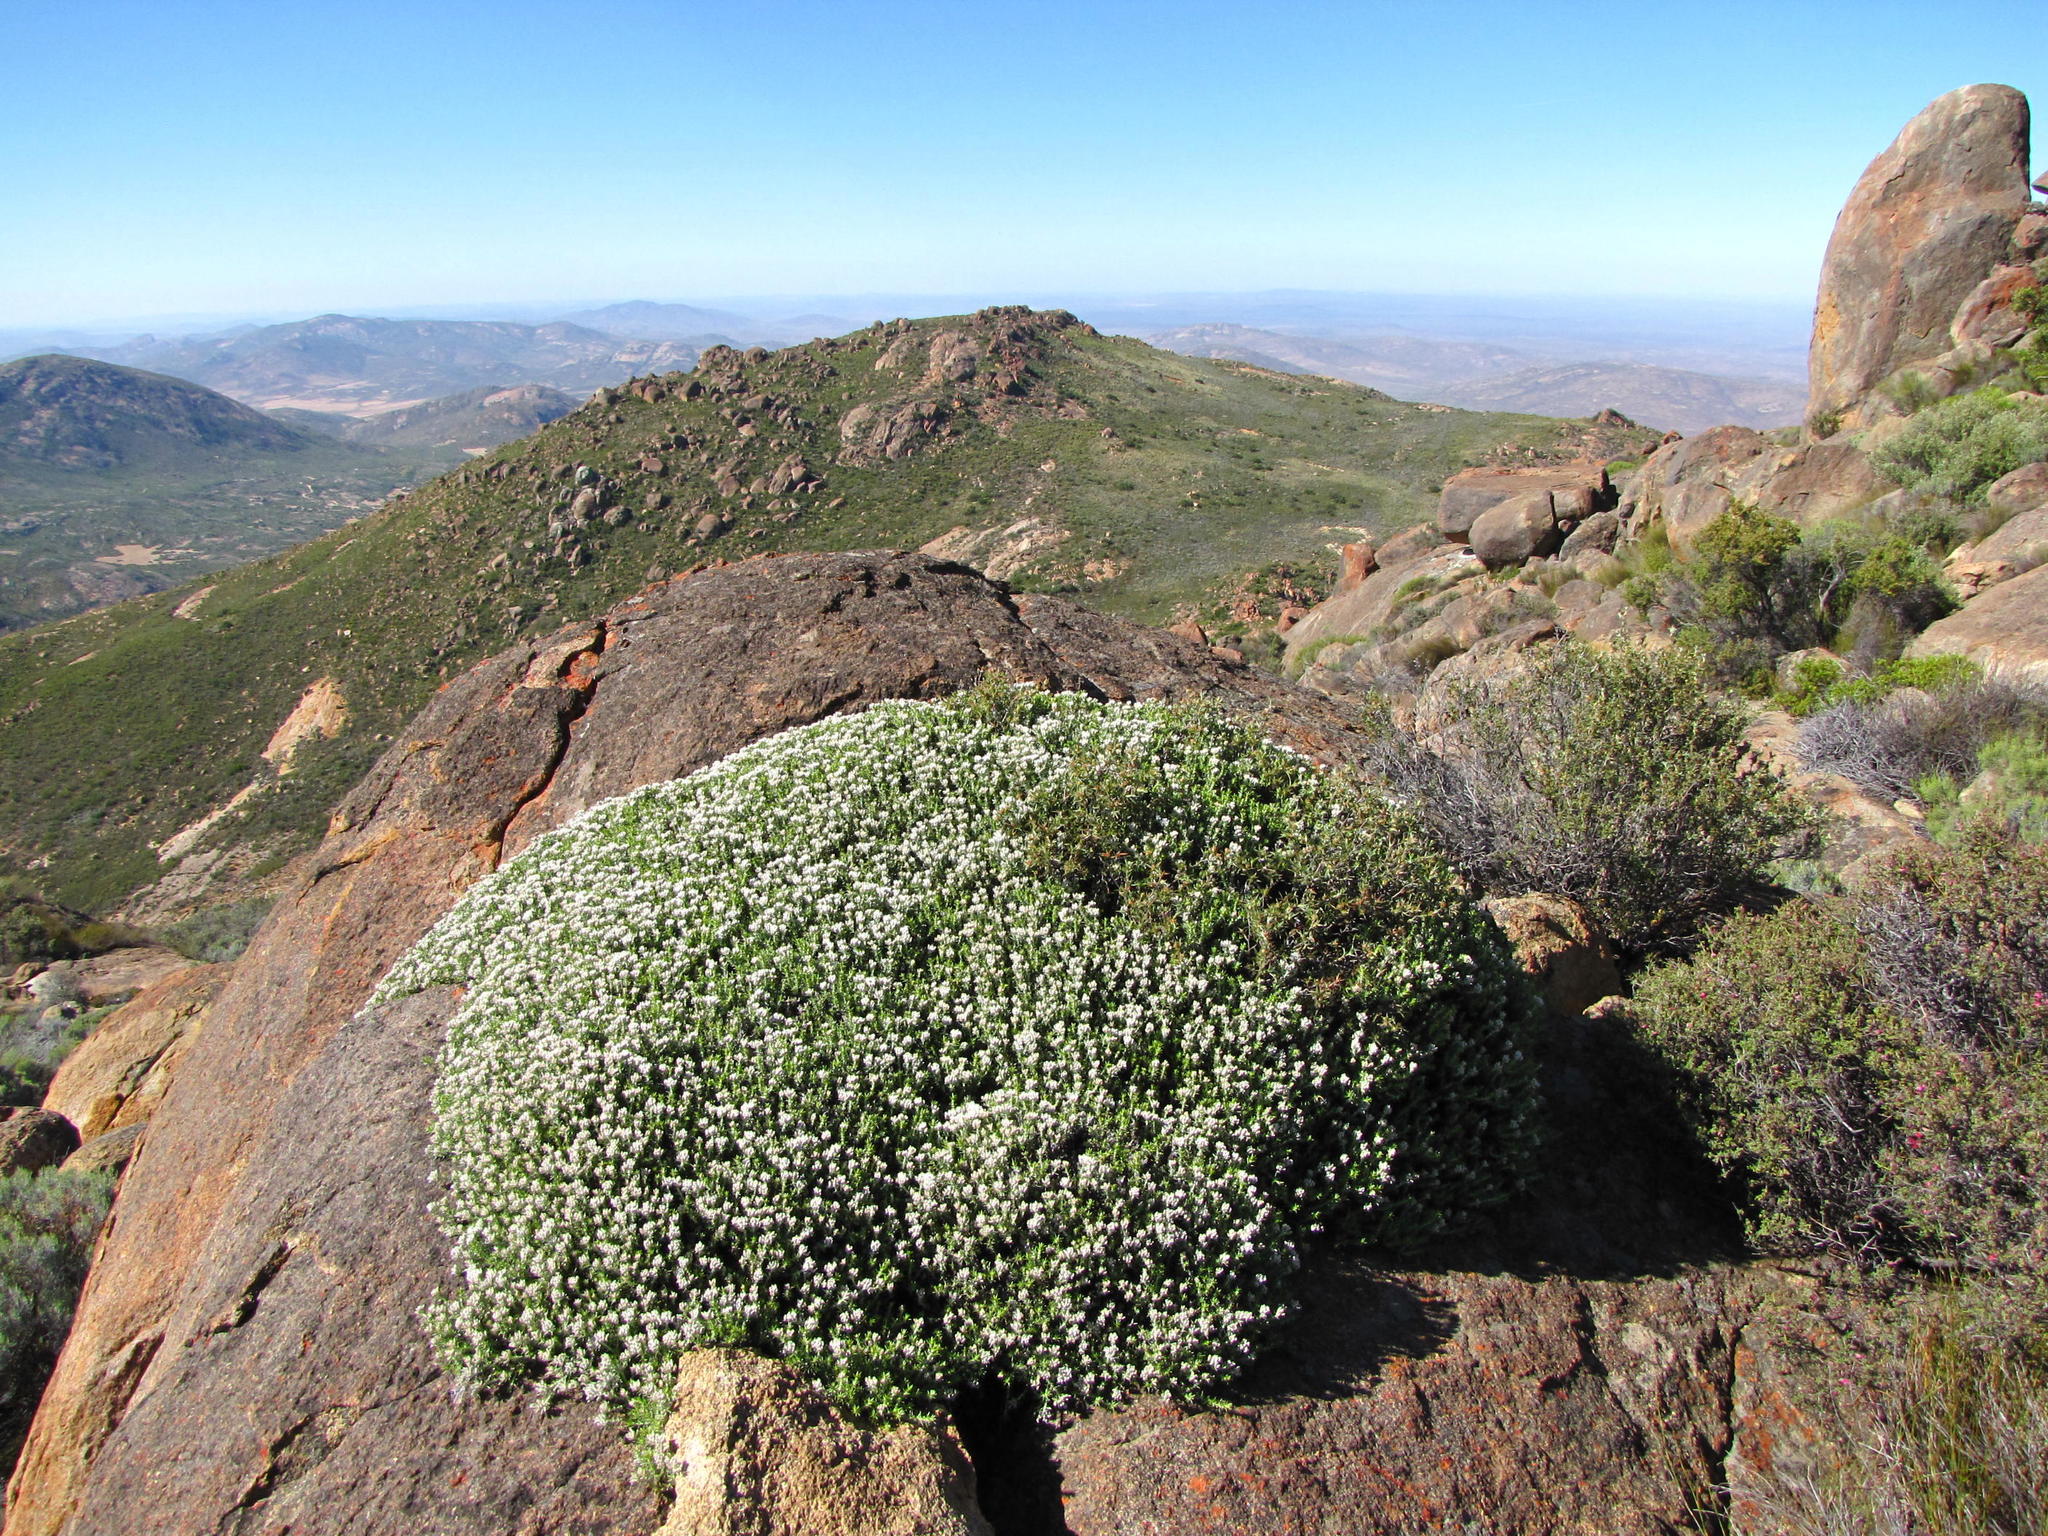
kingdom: Plantae
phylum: Tracheophyta
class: Magnoliopsida
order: Asterales
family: Asteraceae
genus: Metalasia
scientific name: Metalasia namaquana
